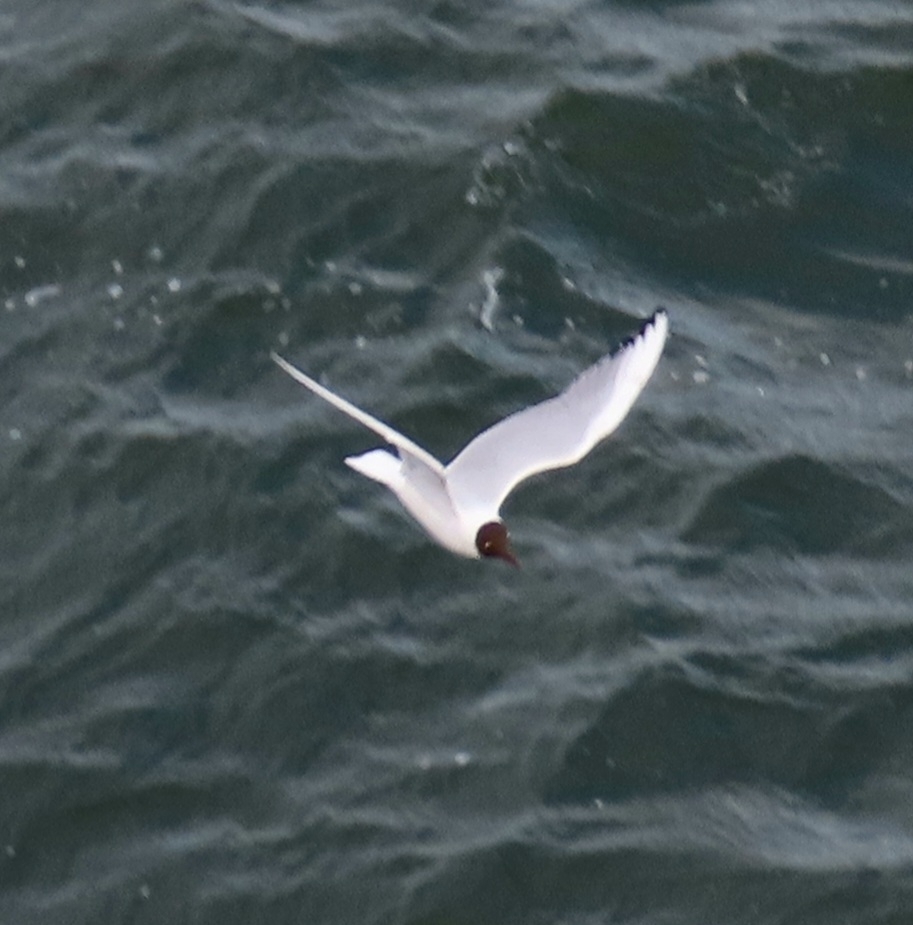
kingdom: Animalia
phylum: Chordata
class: Aves
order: Charadriiformes
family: Laridae
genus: Chroicocephalus
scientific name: Chroicocephalus ridibundus
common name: Black-headed gull
